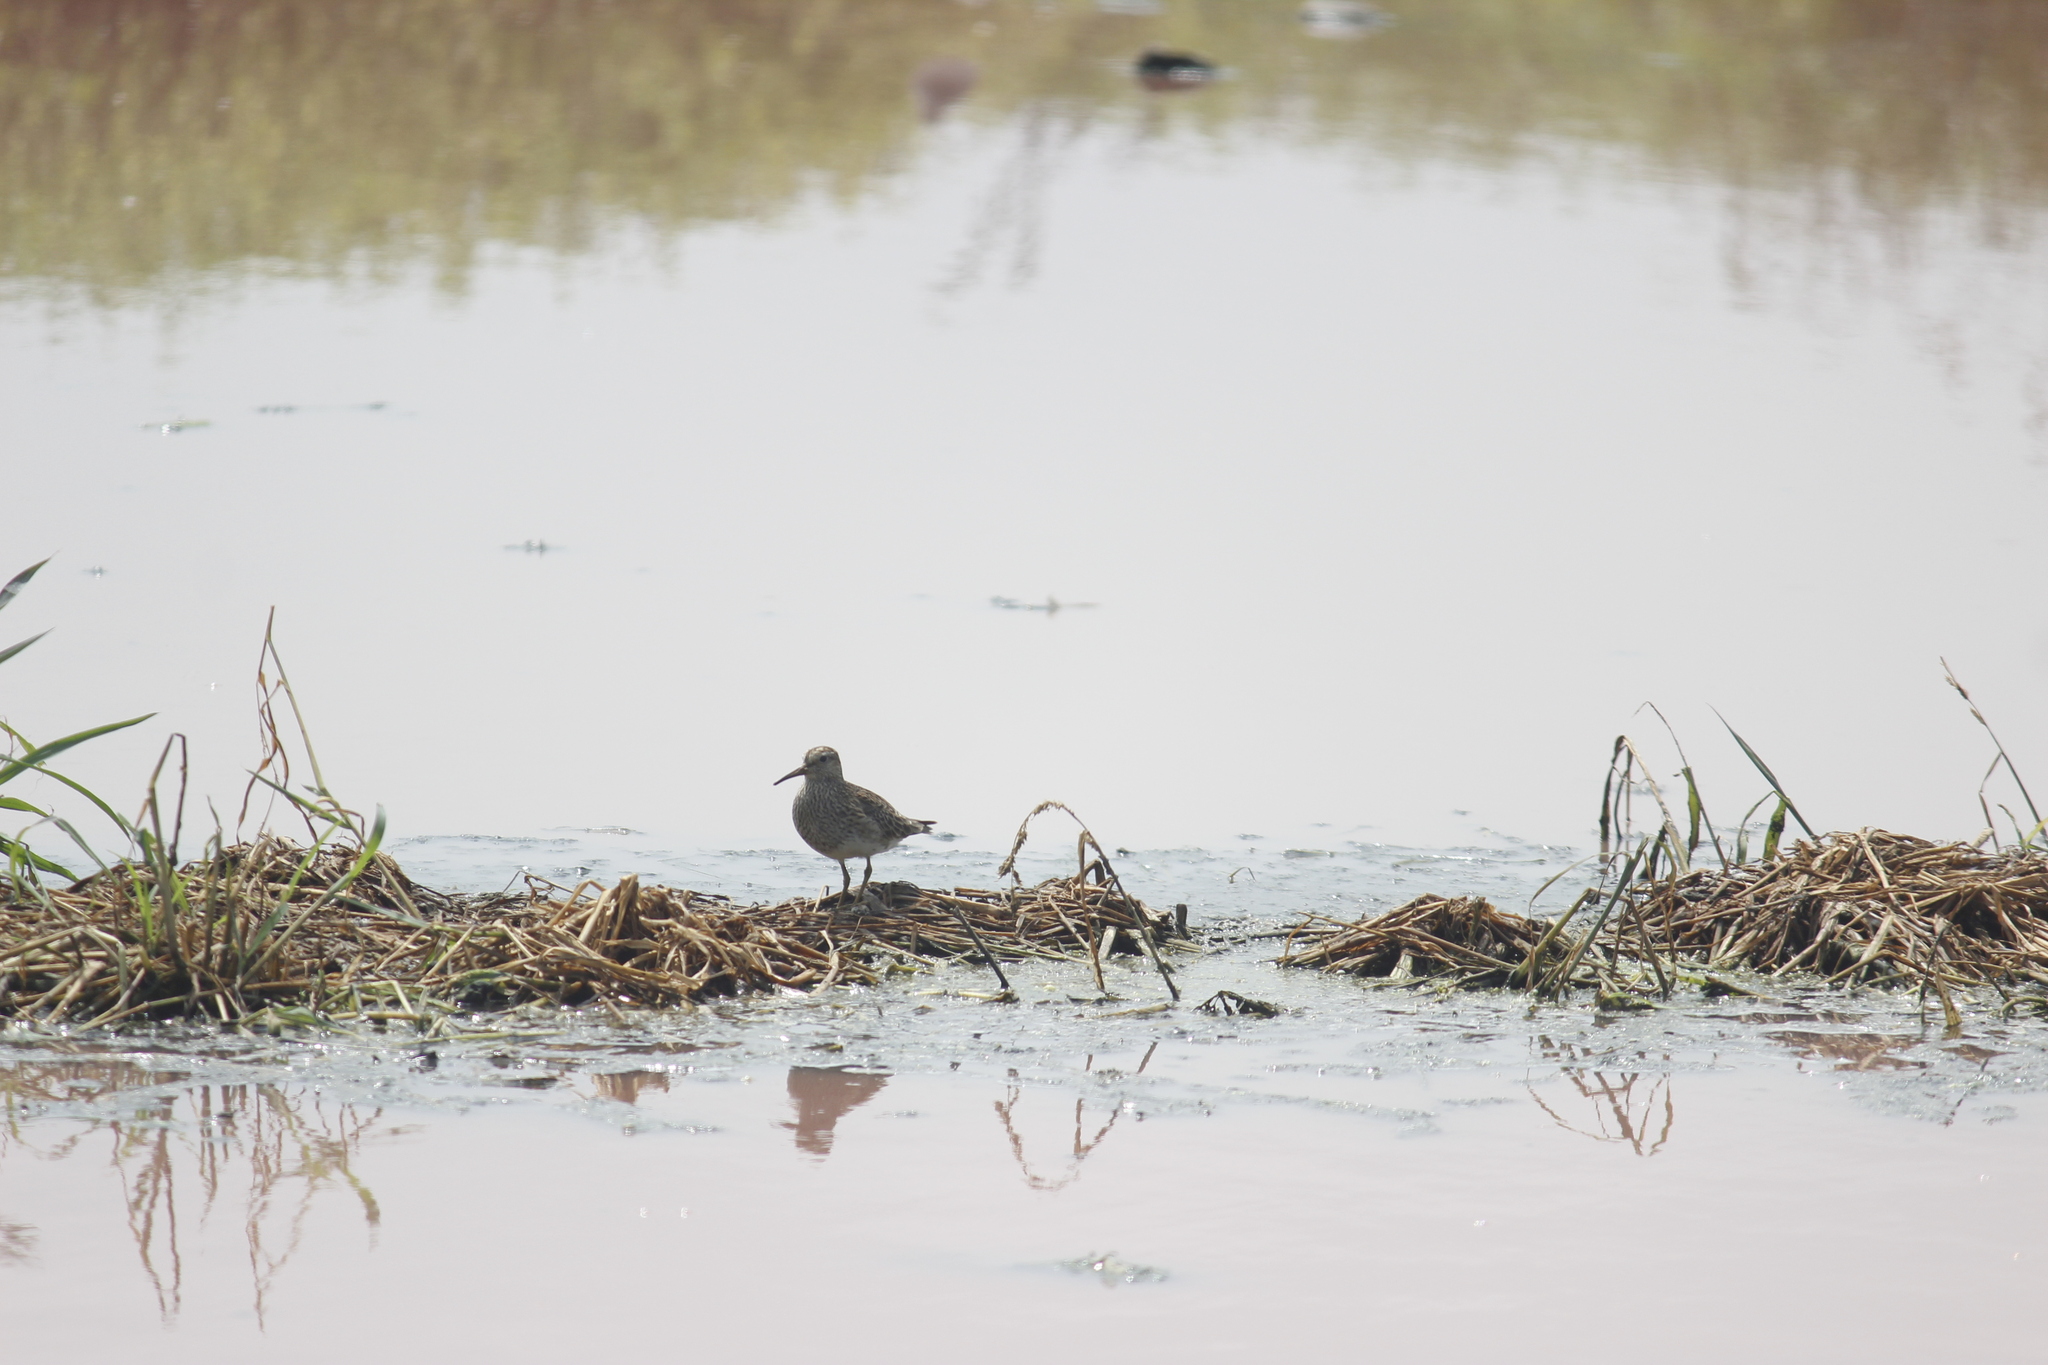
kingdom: Animalia
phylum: Chordata
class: Aves
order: Charadriiformes
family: Scolopacidae
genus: Calidris
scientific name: Calidris melanotos
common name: Pectoral sandpiper
